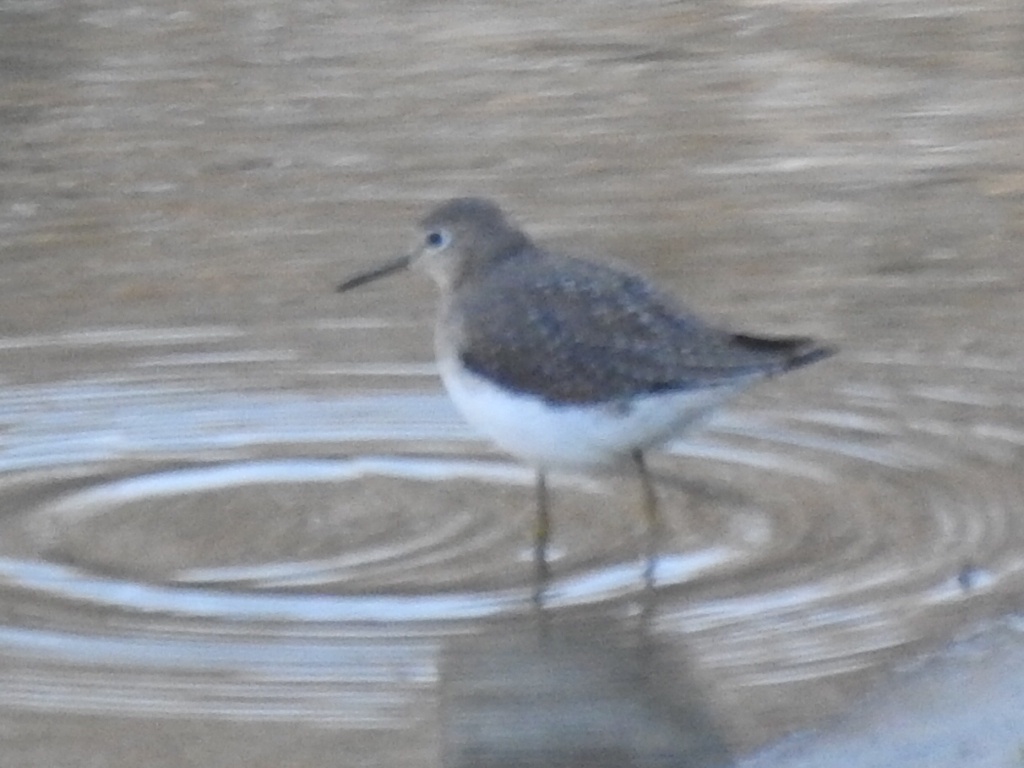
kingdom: Animalia
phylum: Chordata
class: Aves
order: Charadriiformes
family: Scolopacidae
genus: Tringa
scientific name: Tringa solitaria
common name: Solitary sandpiper
